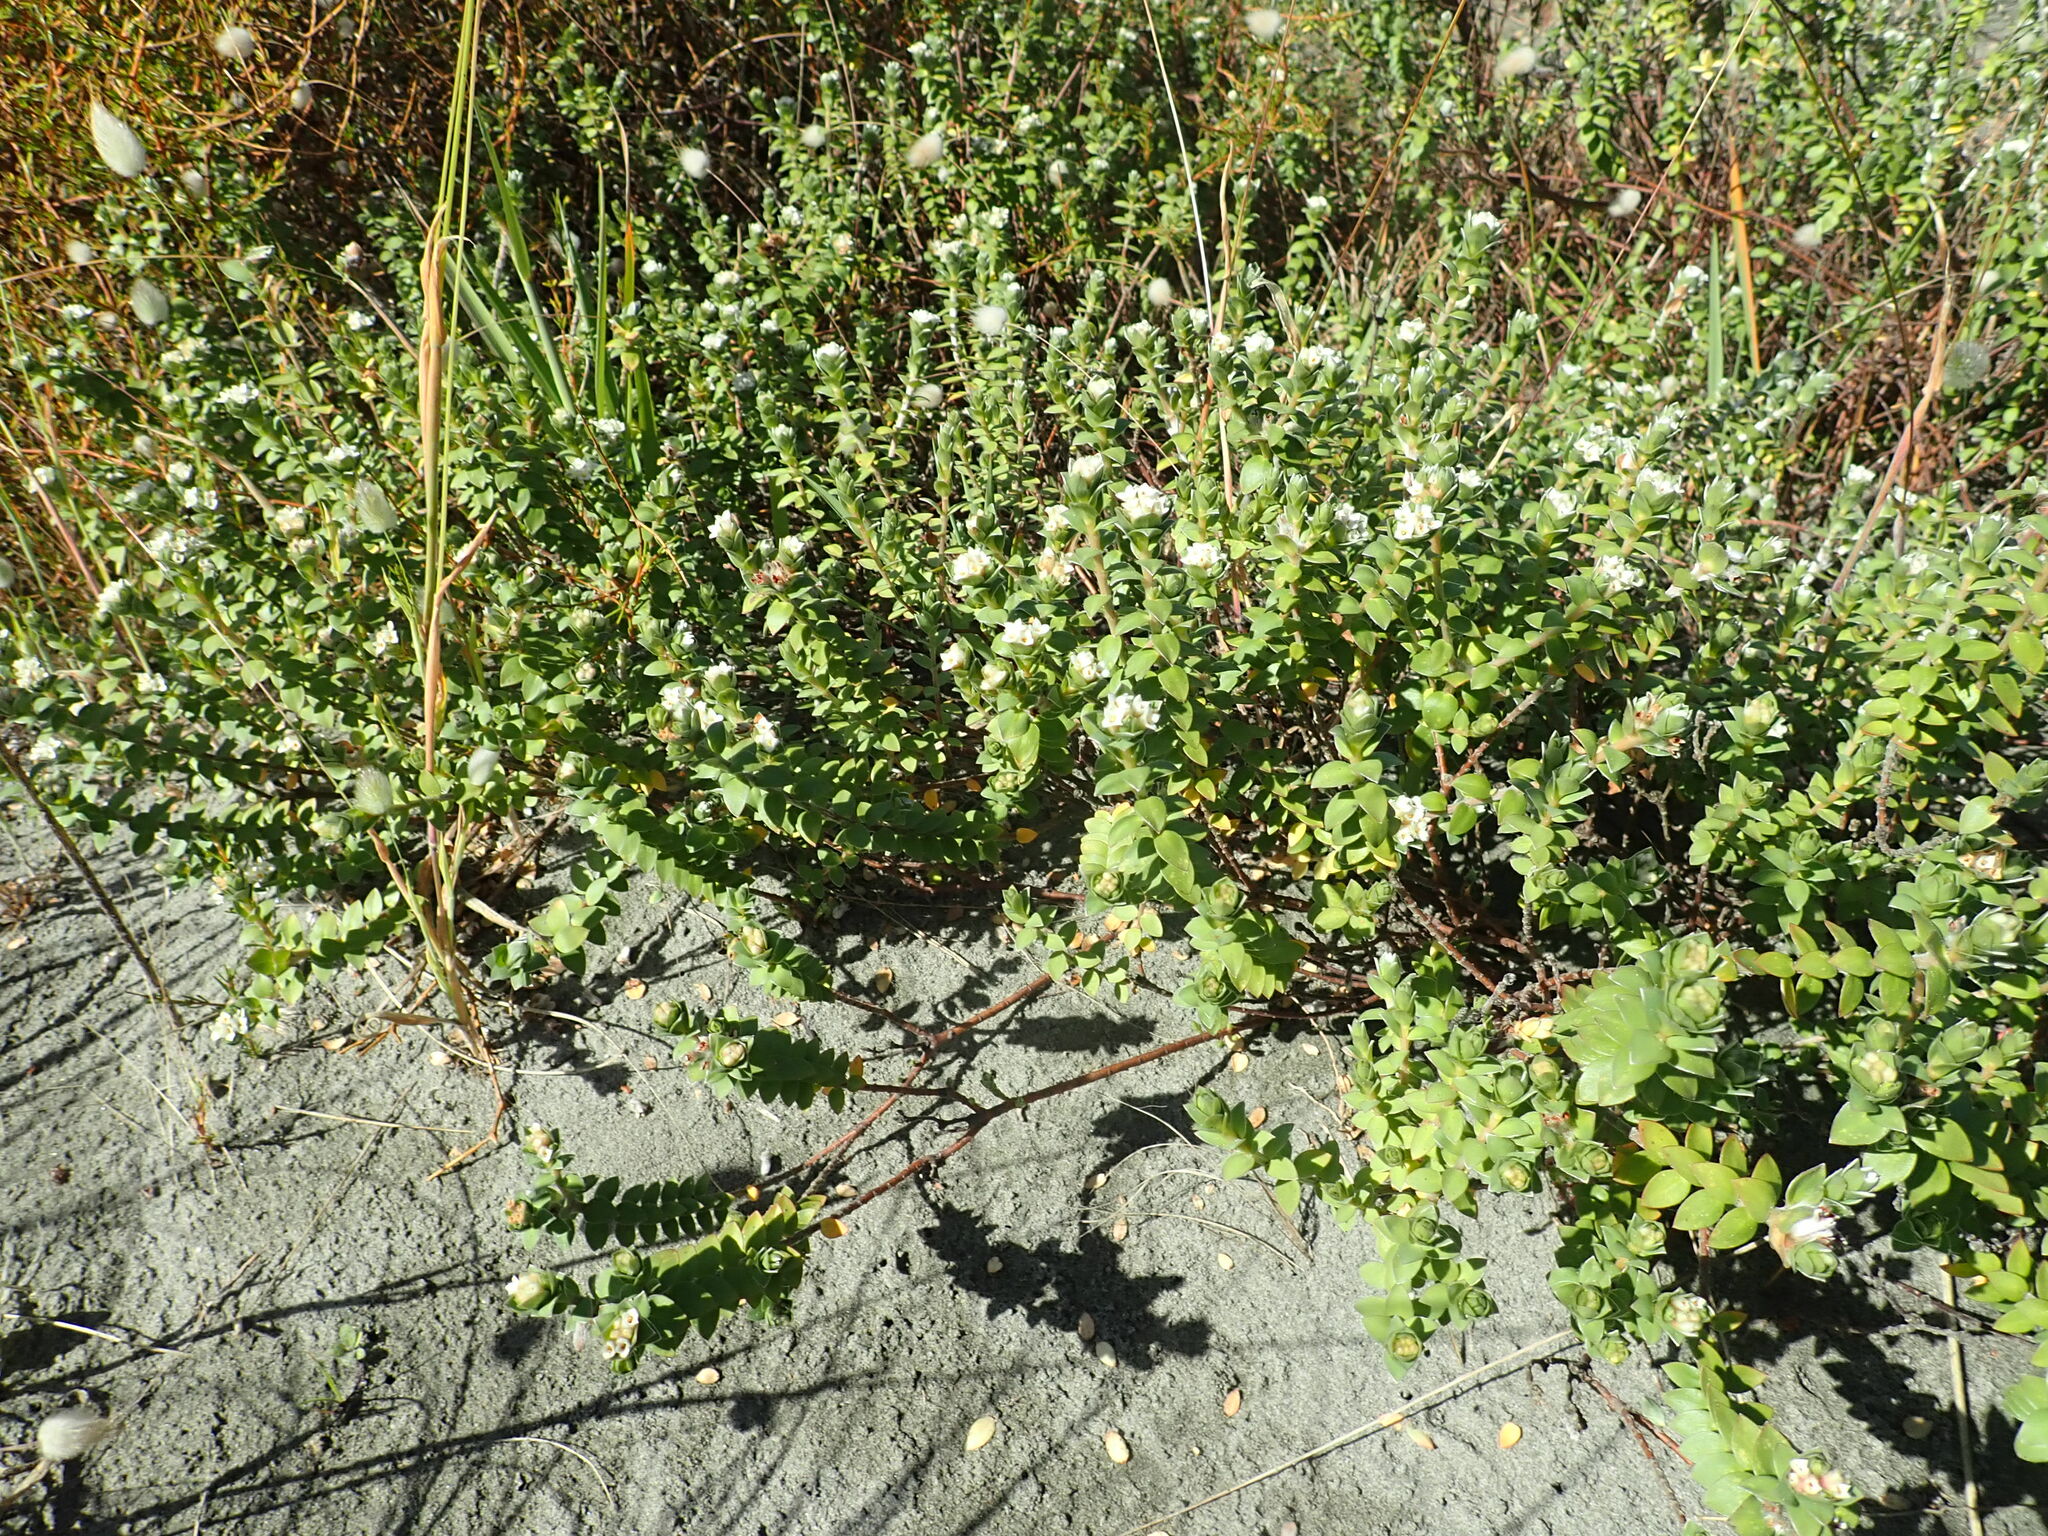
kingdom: Plantae
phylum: Tracheophyta
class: Magnoliopsida
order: Malvales
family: Thymelaeaceae
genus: Pimelea
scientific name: Pimelea villosa
